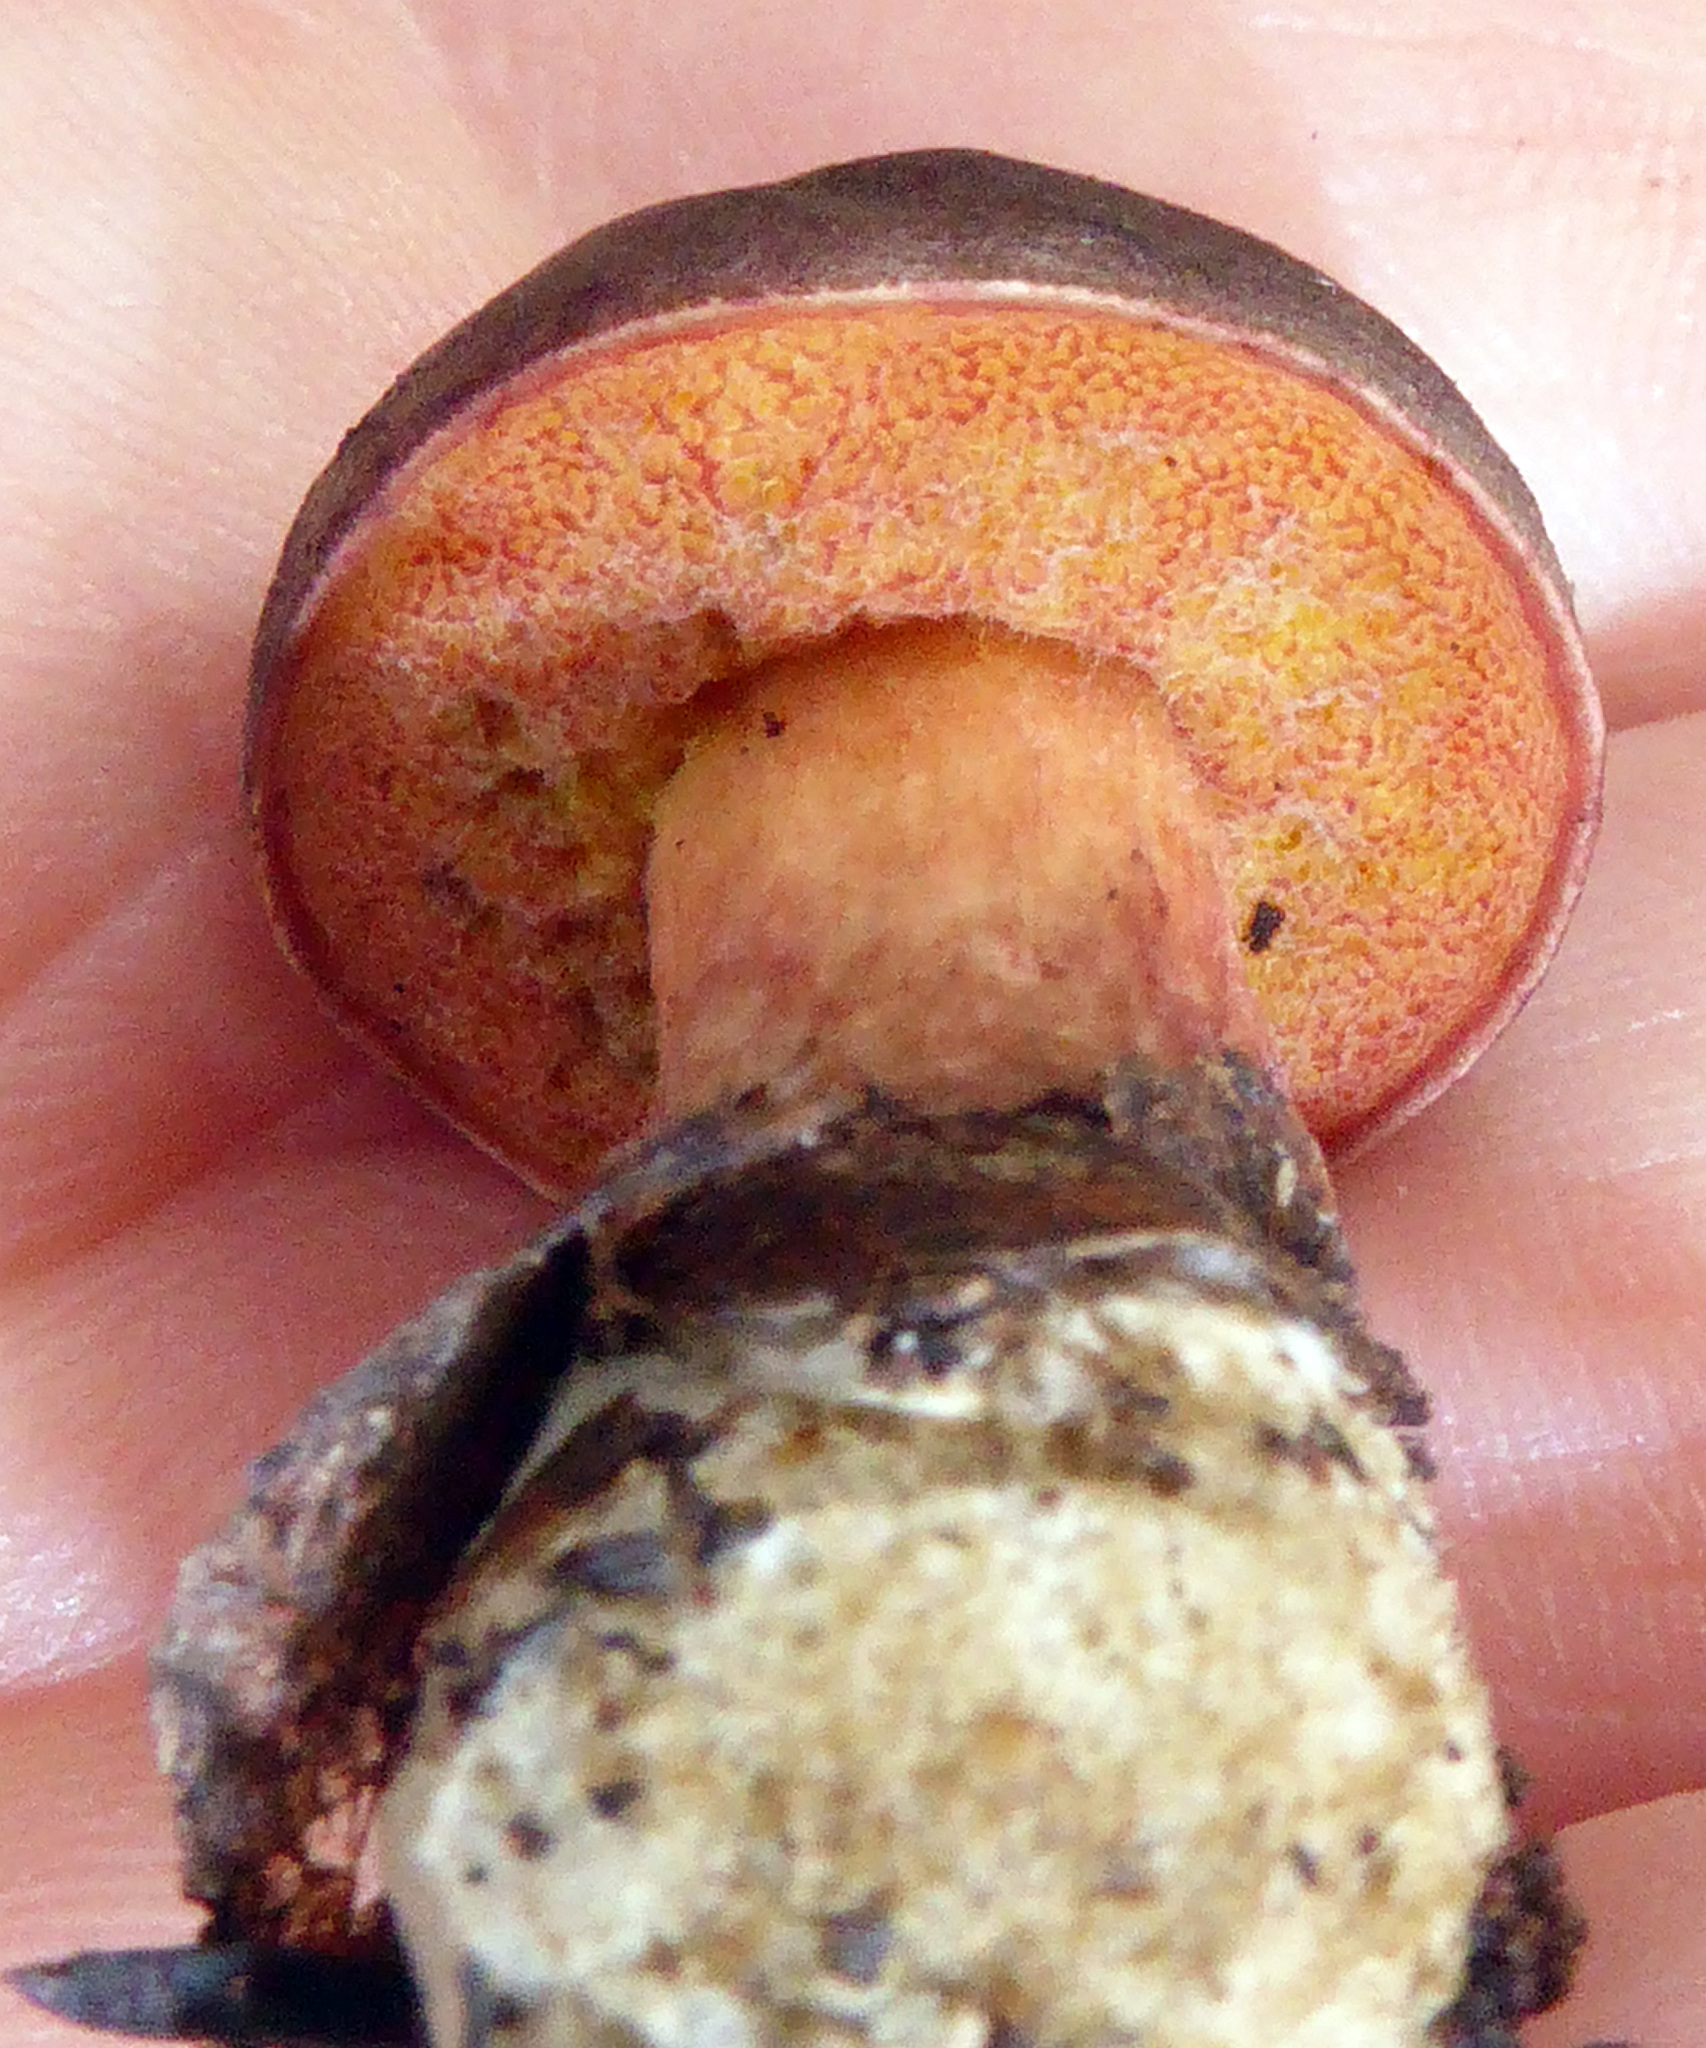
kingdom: Fungi
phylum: Basidiomycota
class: Agaricomycetes
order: Boletales
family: Boletaceae
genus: Xerocomus
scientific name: Xerocomus leptospermi
